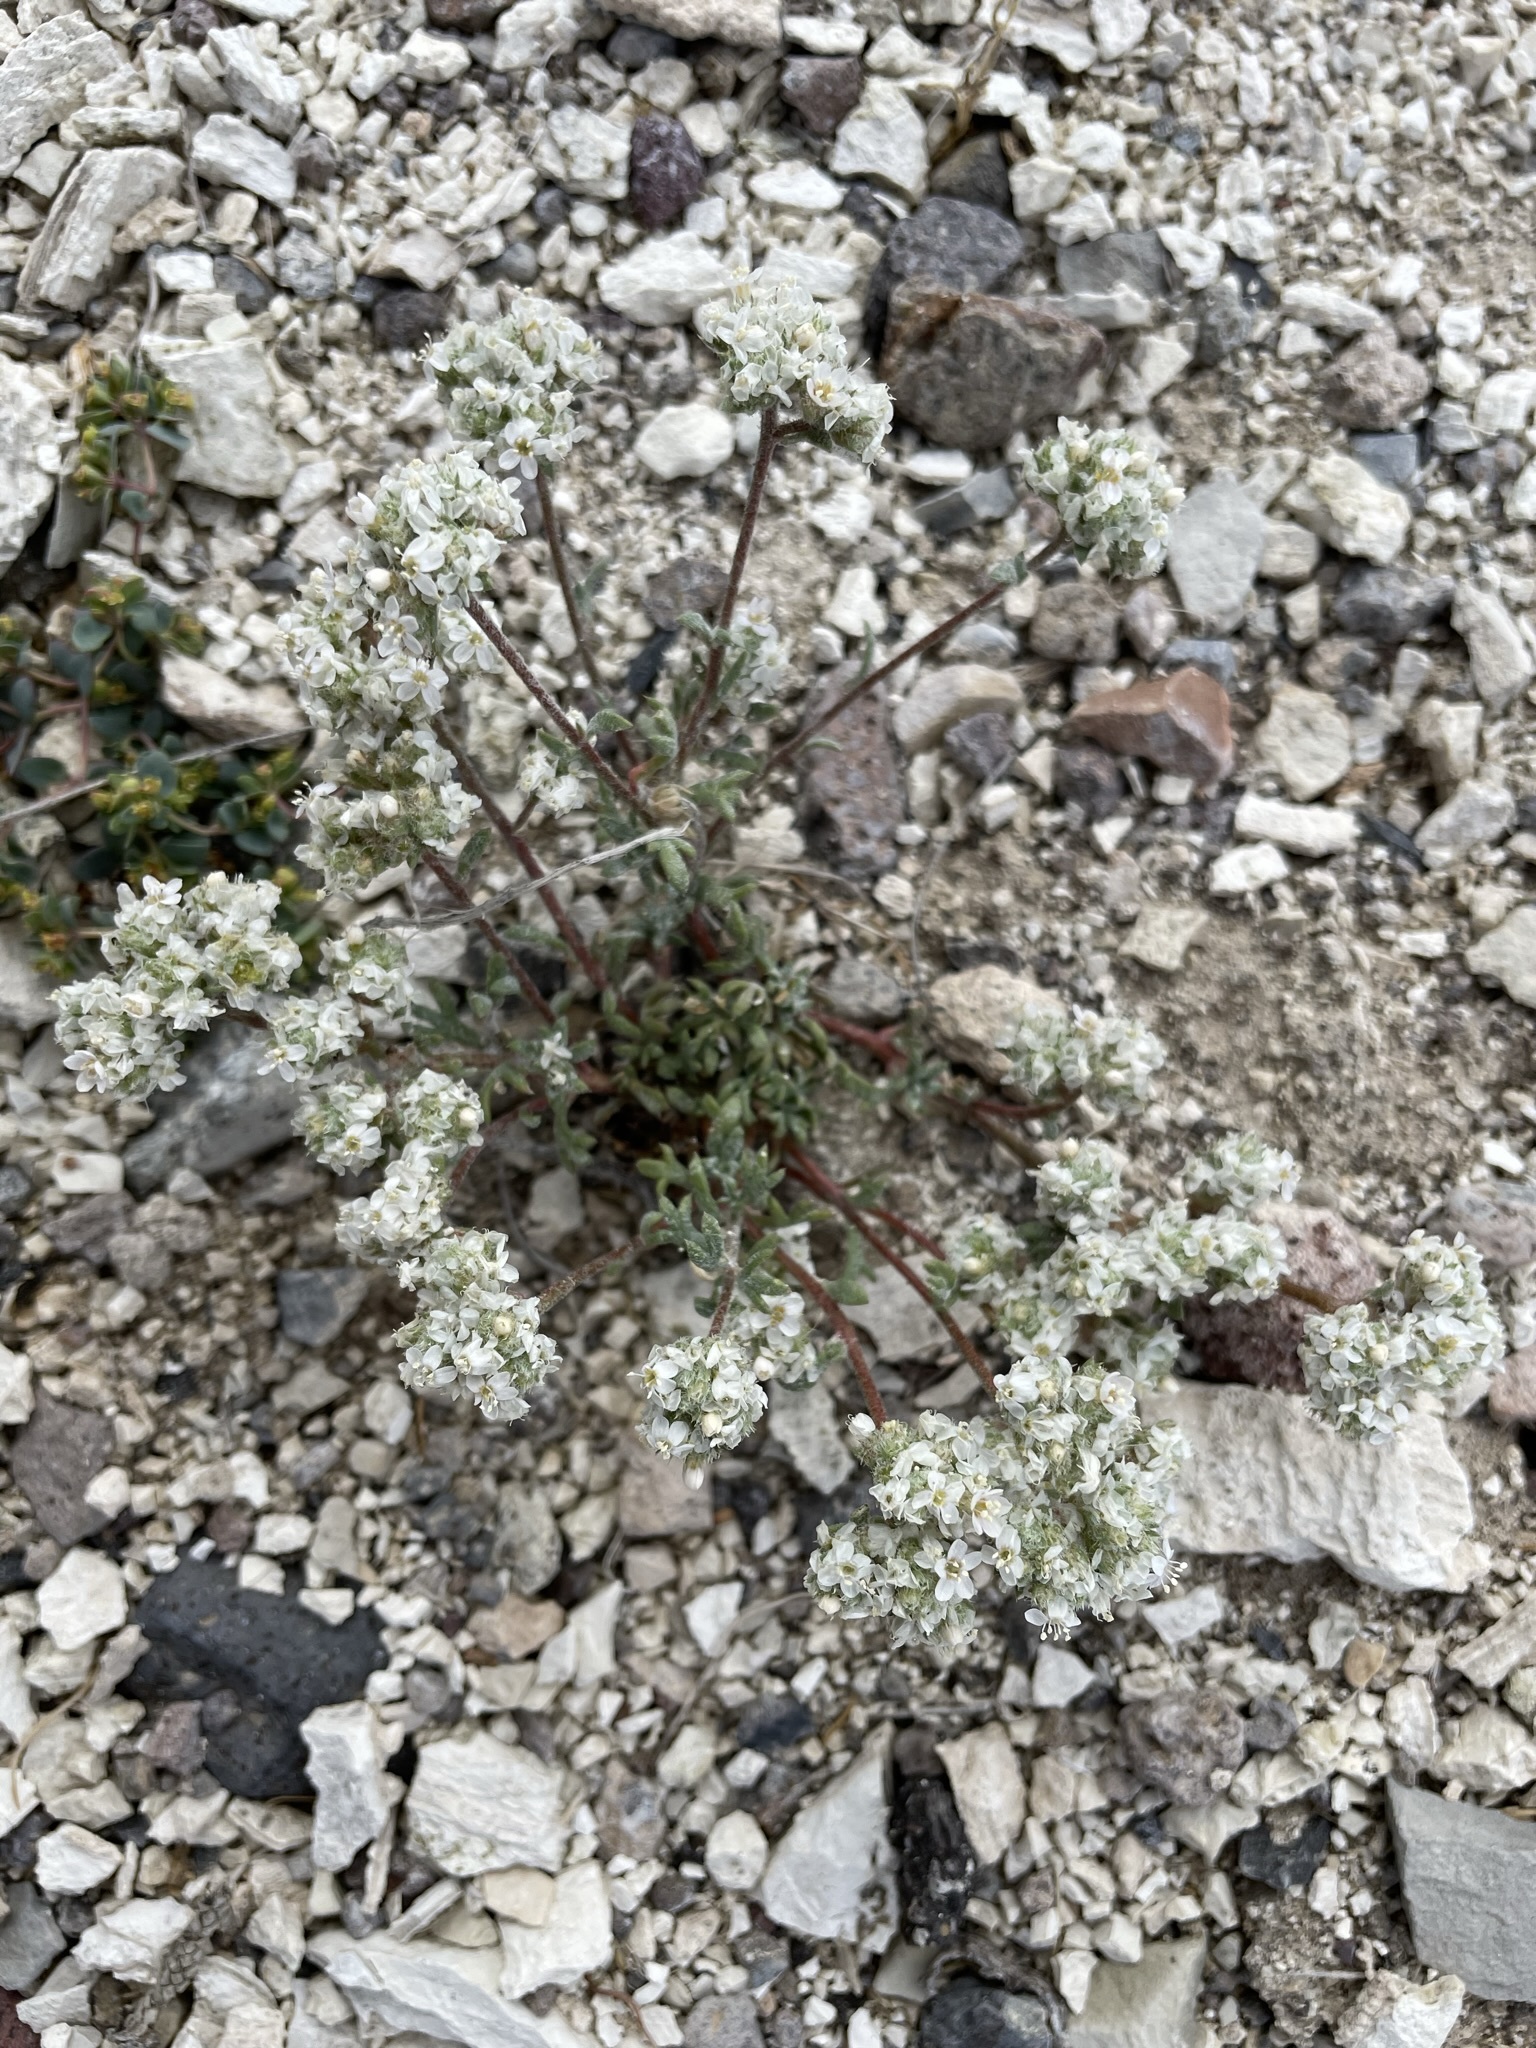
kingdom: Plantae
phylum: Tracheophyta
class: Magnoliopsida
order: Ericales
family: Polemoniaceae
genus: Ipomopsis
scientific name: Ipomopsis congesta
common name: Ball-head gilia
